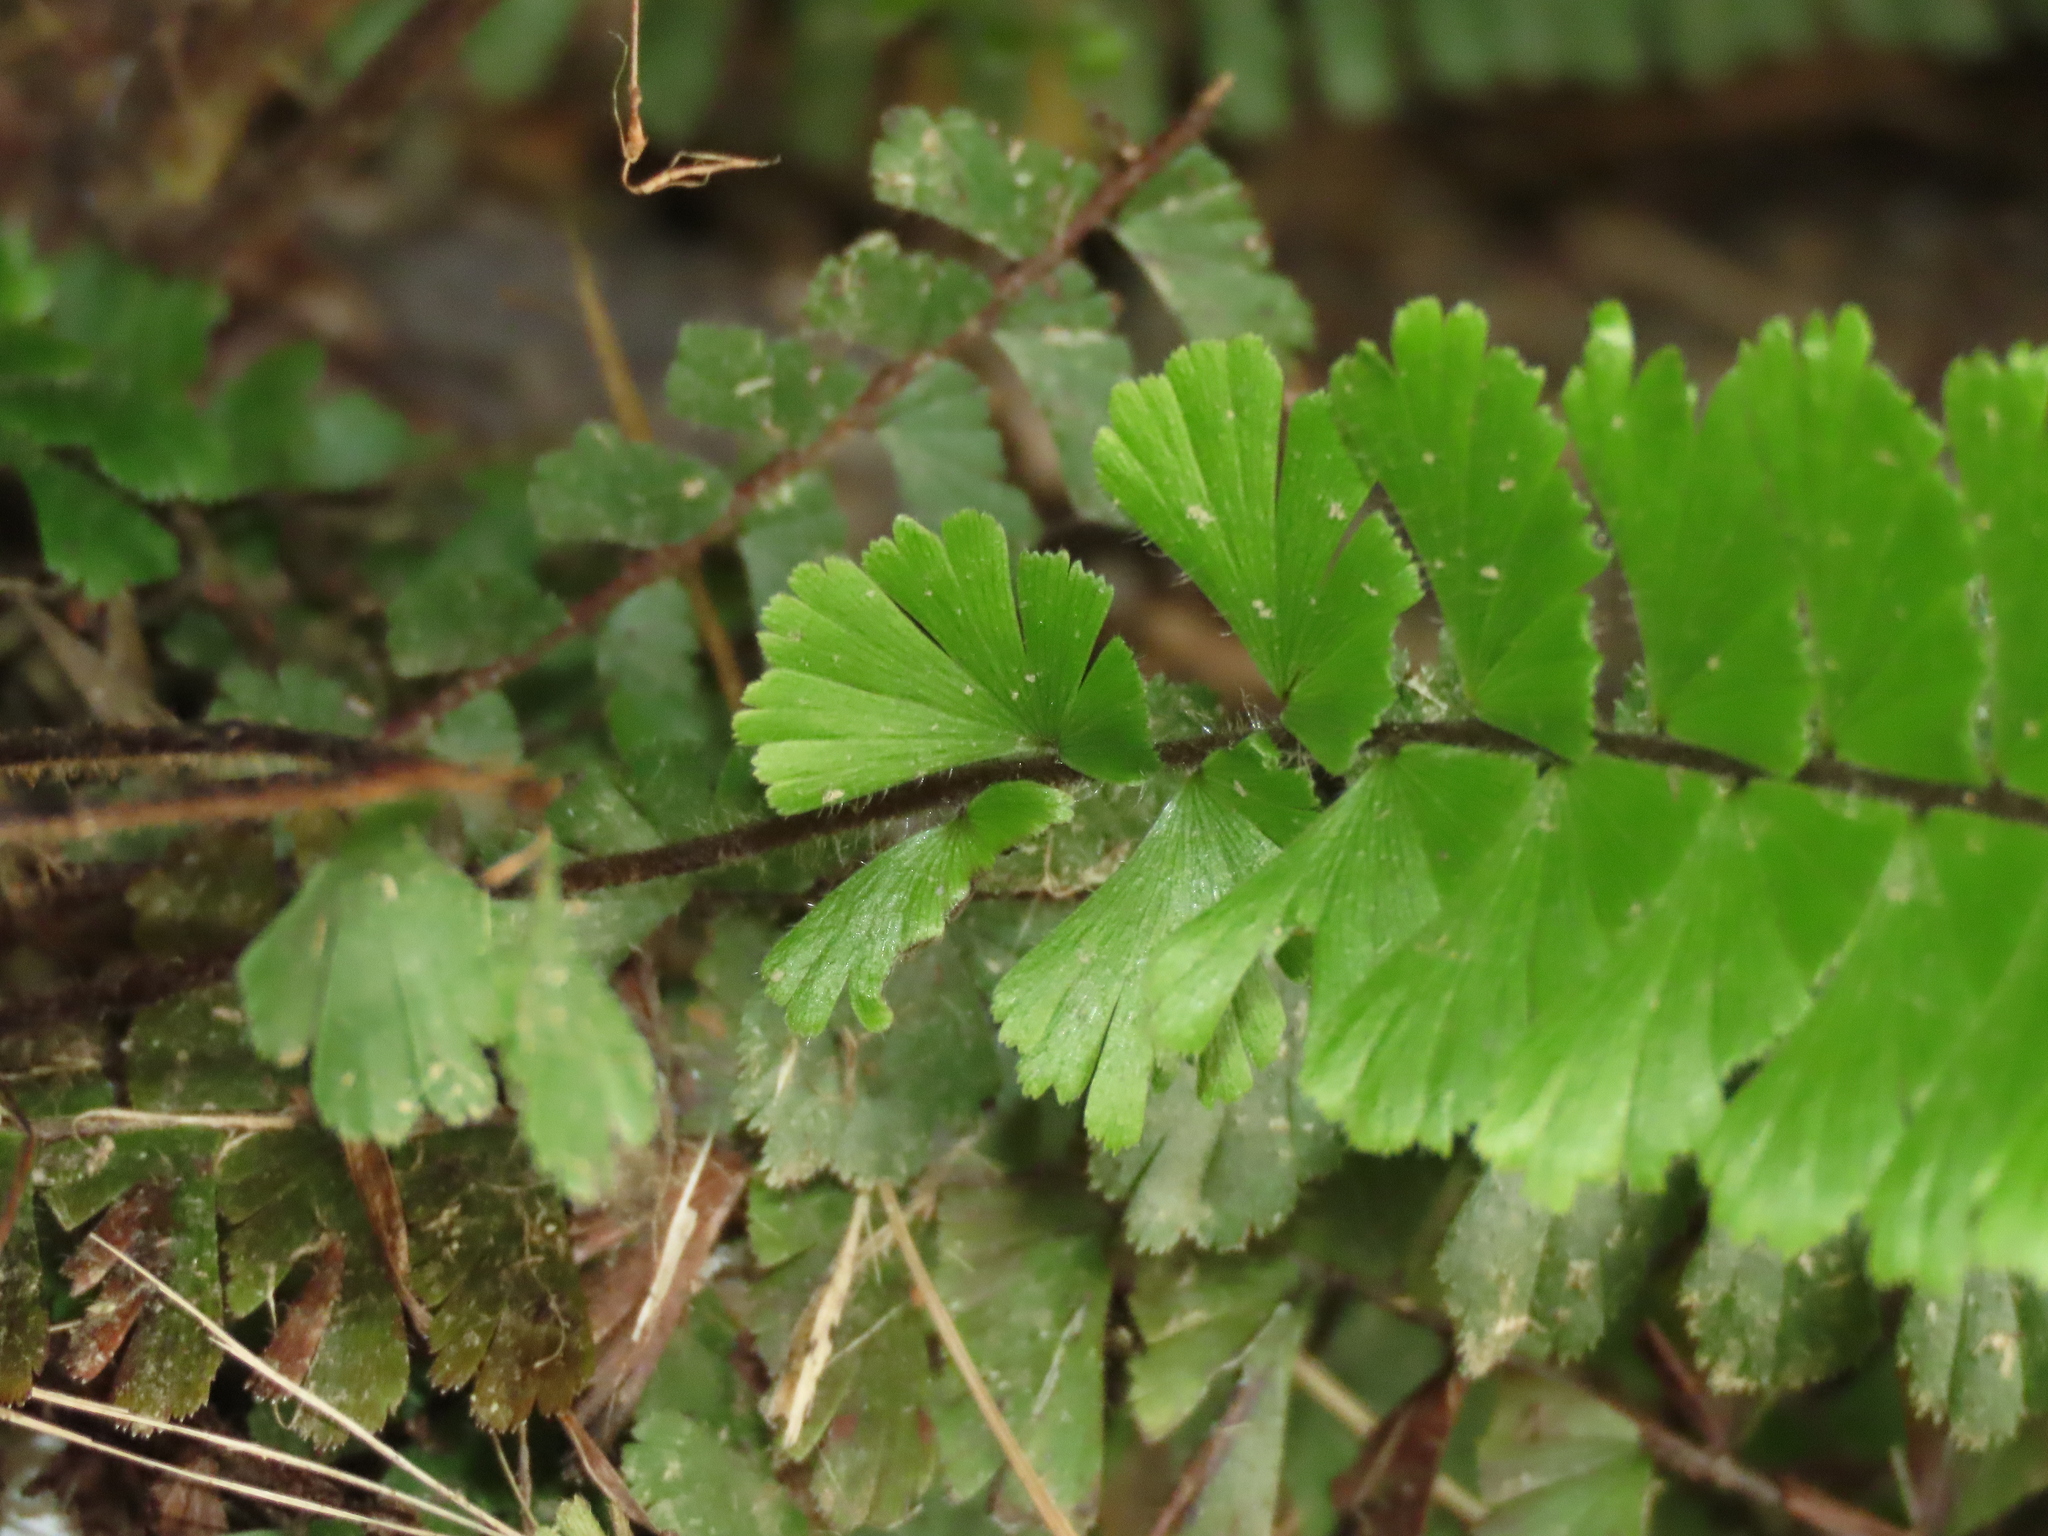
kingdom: Plantae
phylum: Tracheophyta
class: Polypodiopsida
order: Polypodiales
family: Pteridaceae
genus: Adiantum
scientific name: Adiantum caudatum
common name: Tailed maidenhair
